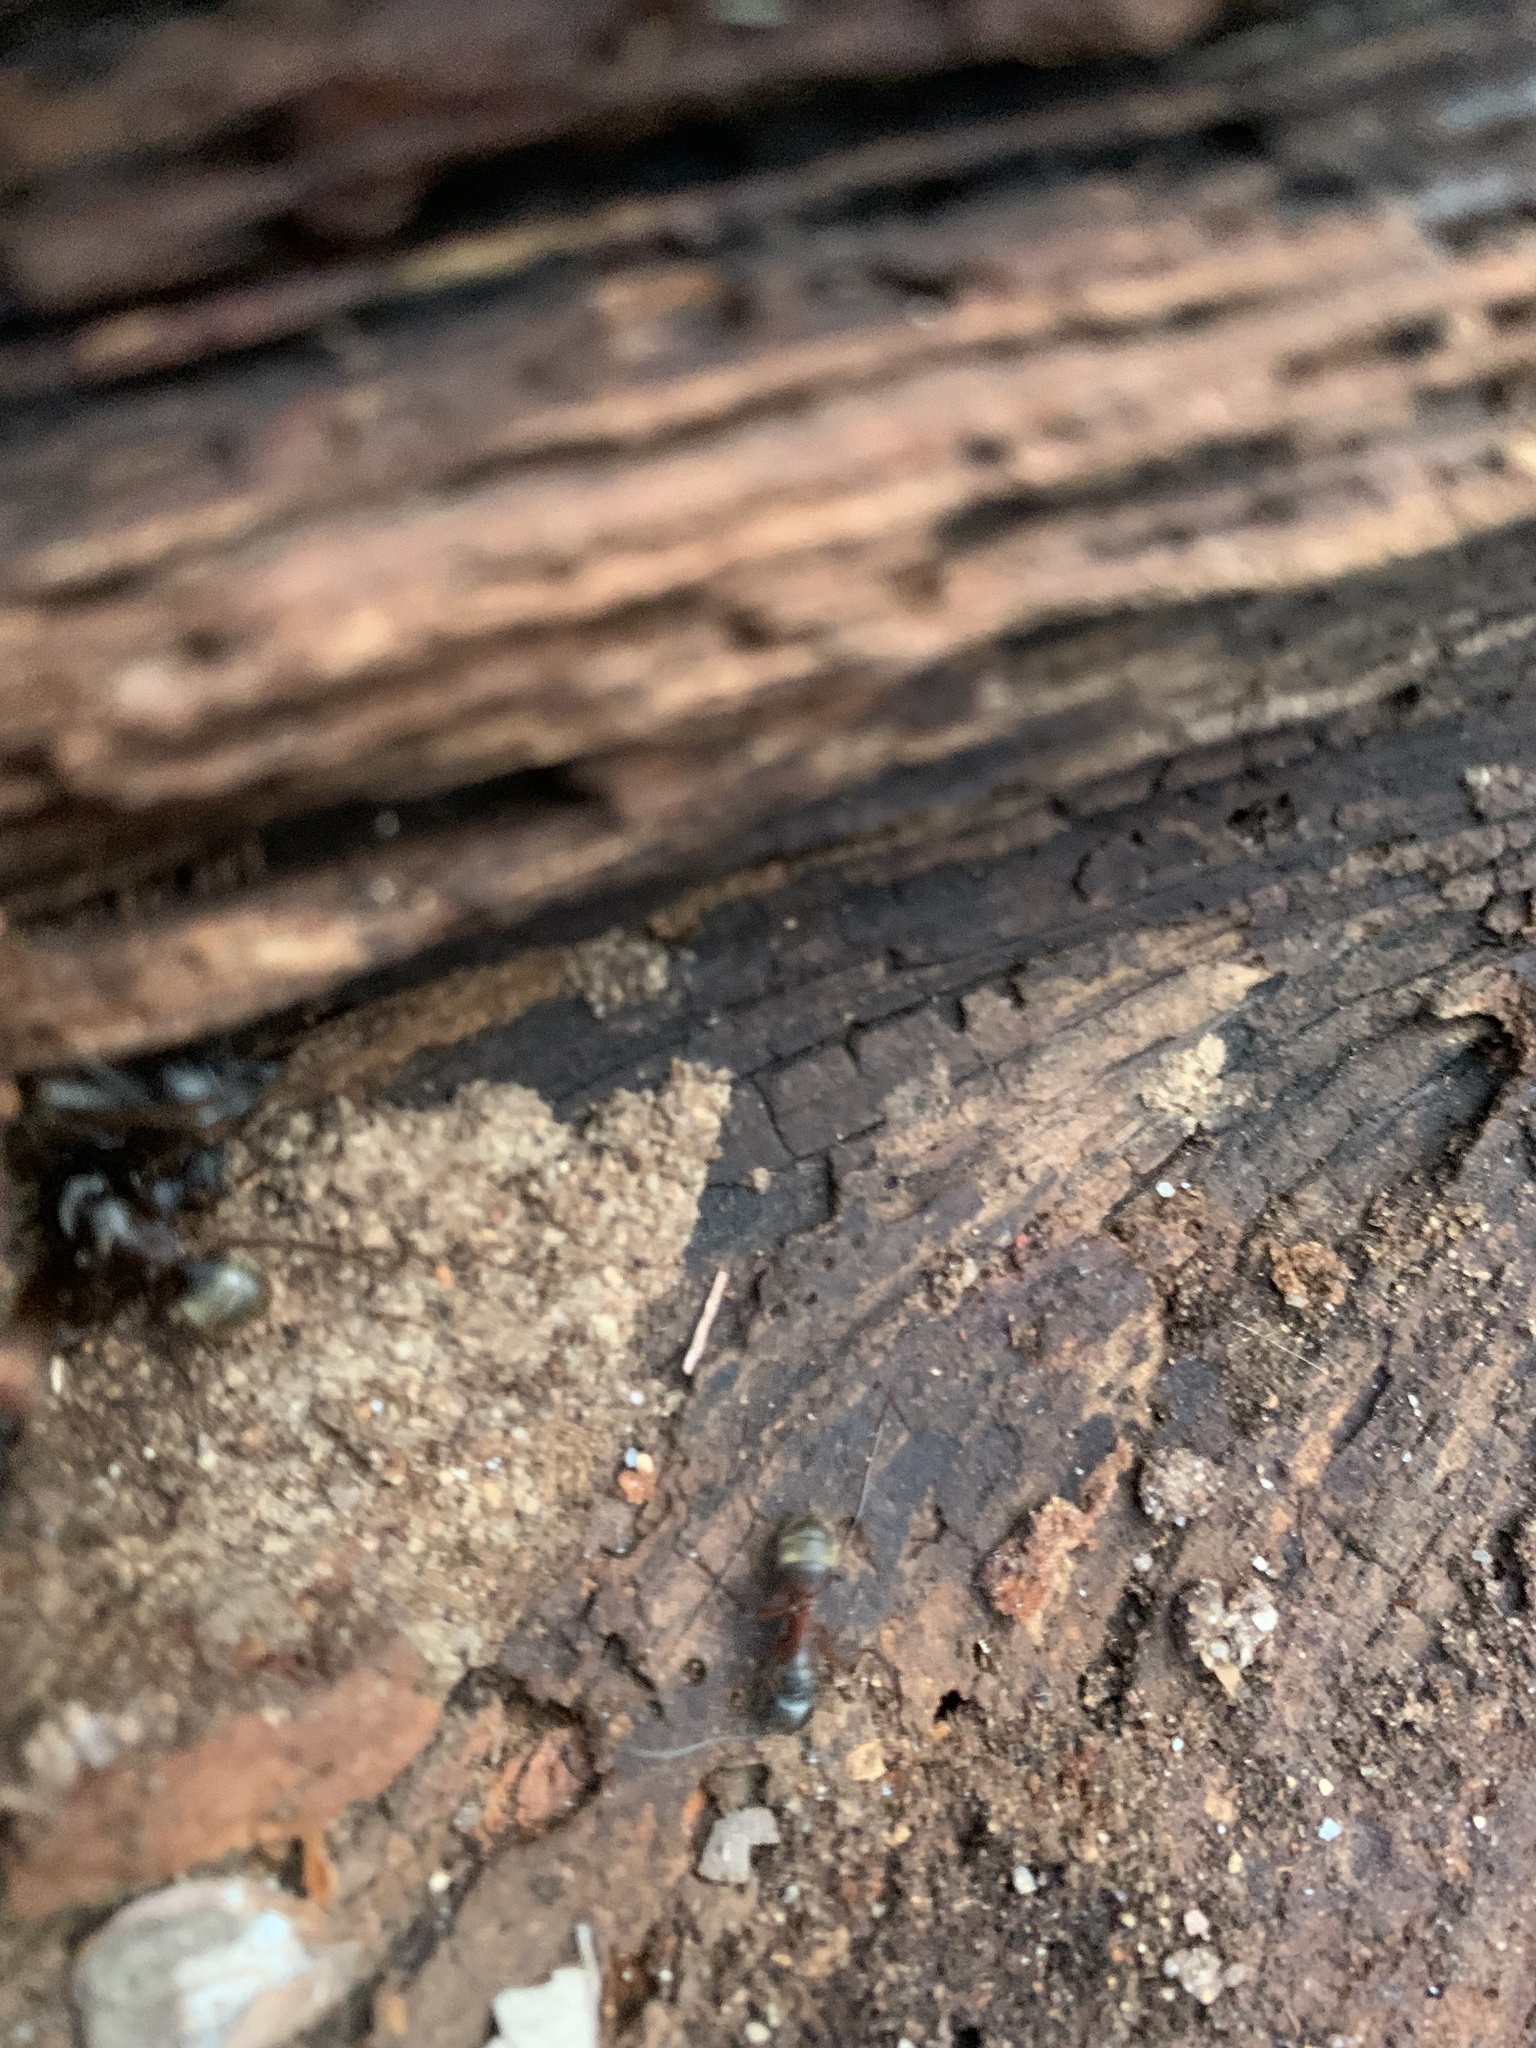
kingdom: Animalia
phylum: Arthropoda
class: Insecta
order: Hymenoptera
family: Formicidae
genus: Camponotus
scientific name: Camponotus chromaiodes
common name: Red carpenter ant
